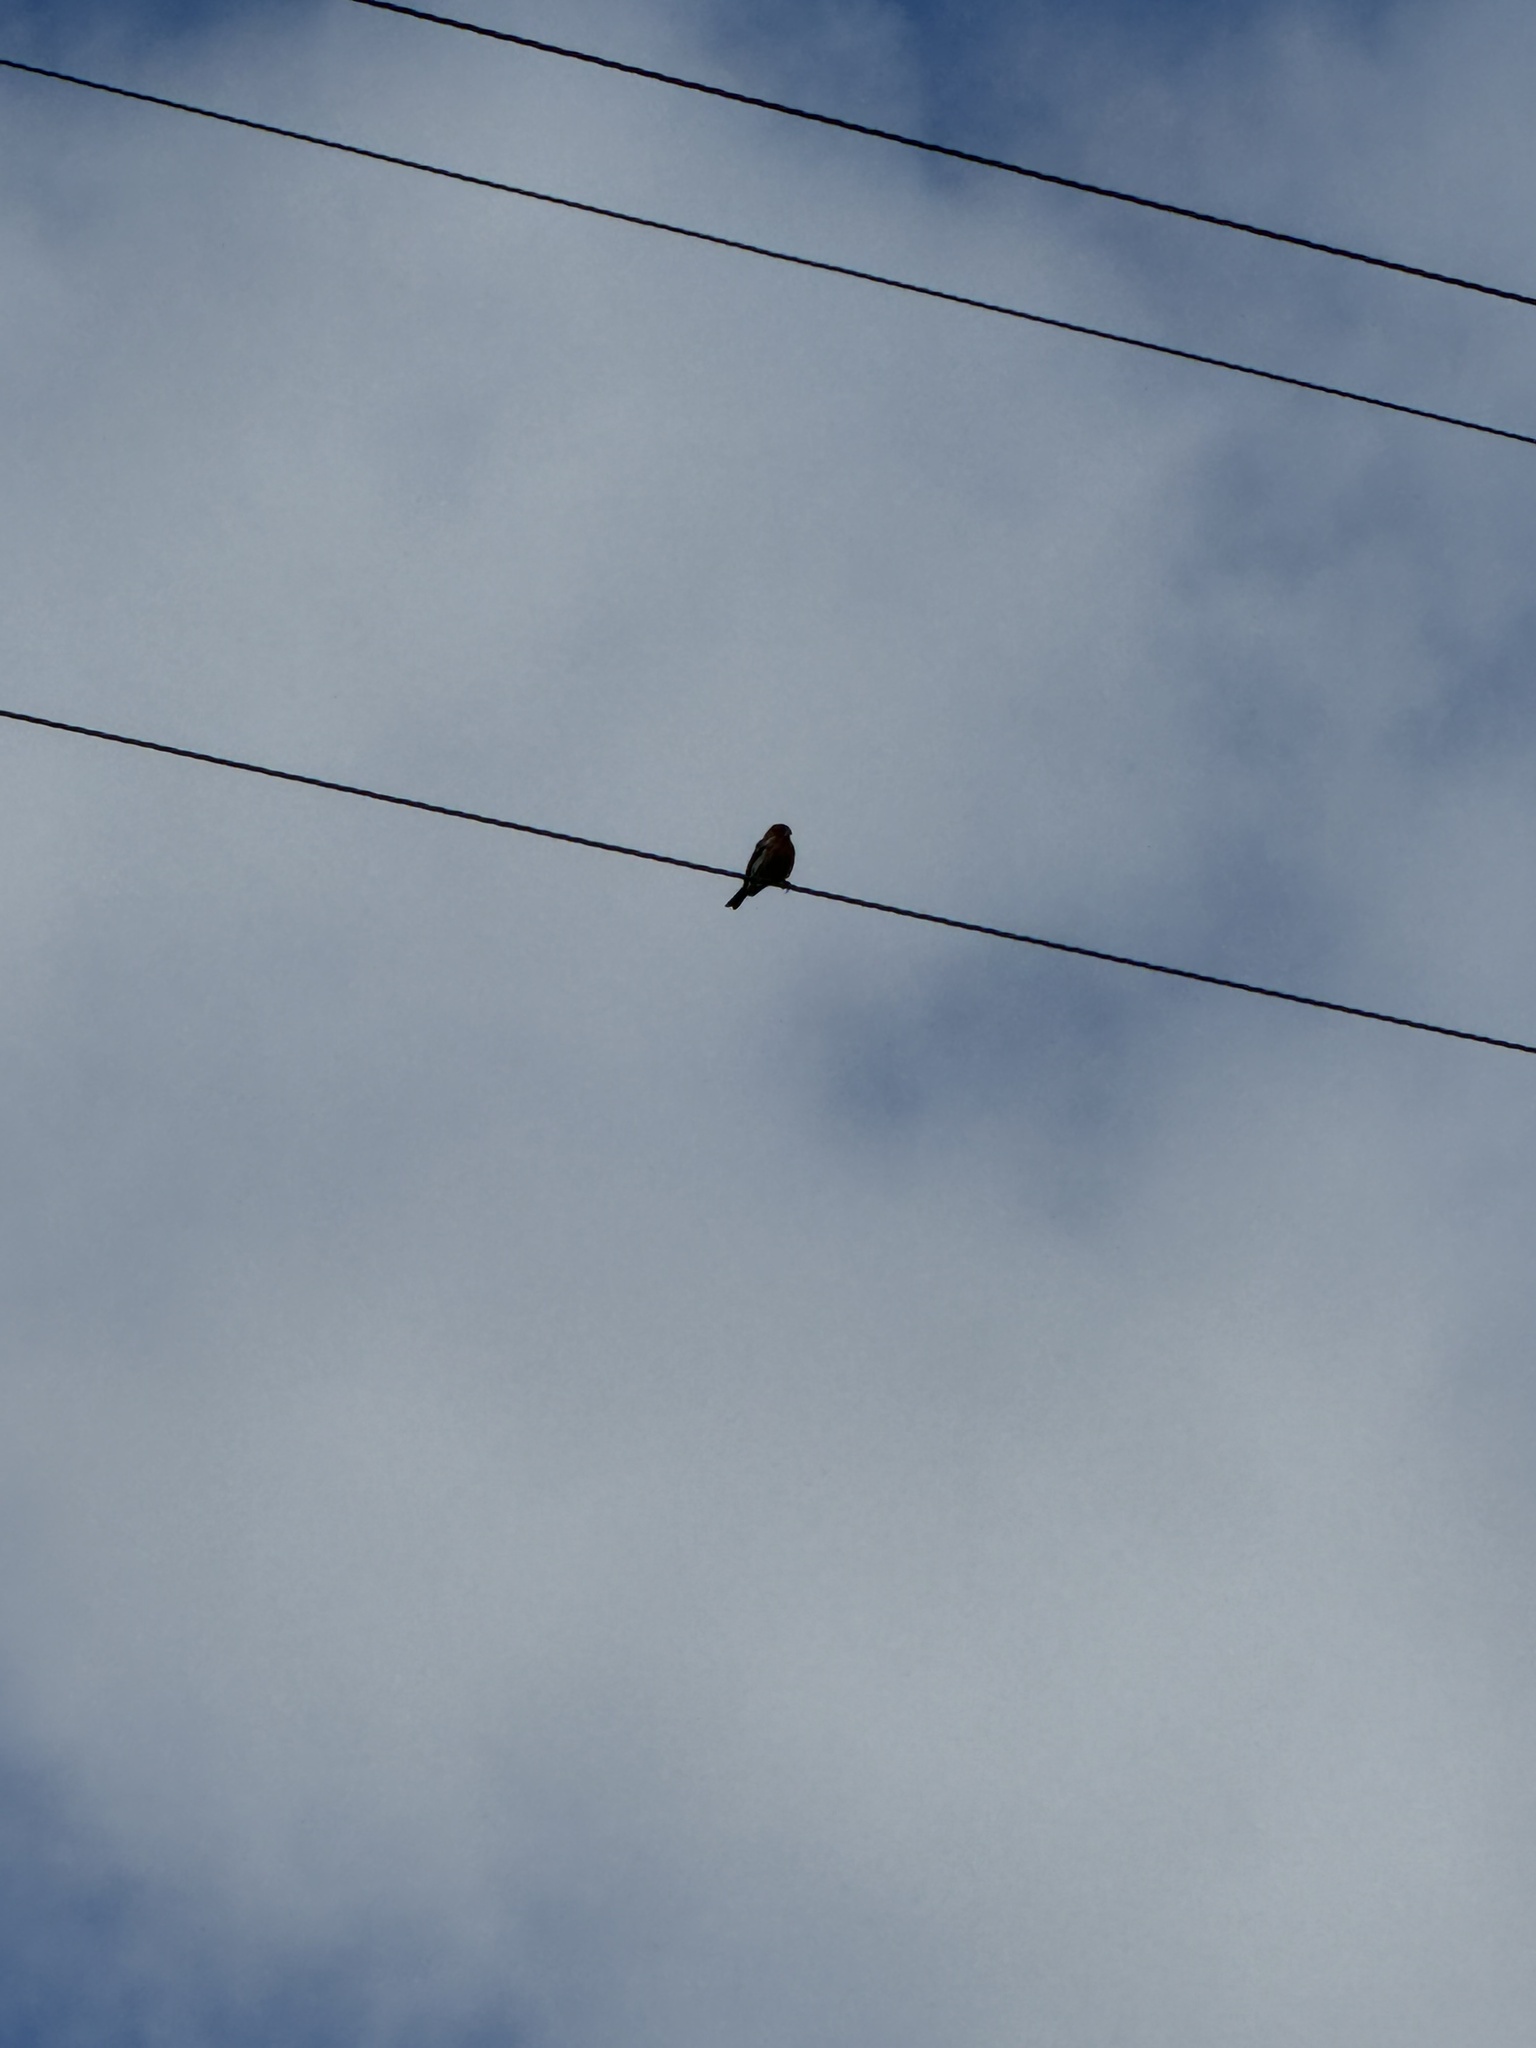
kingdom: Animalia
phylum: Chordata
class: Aves
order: Passeriformes
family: Fringillidae
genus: Haemorhous
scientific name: Haemorhous mexicanus
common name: House finch
